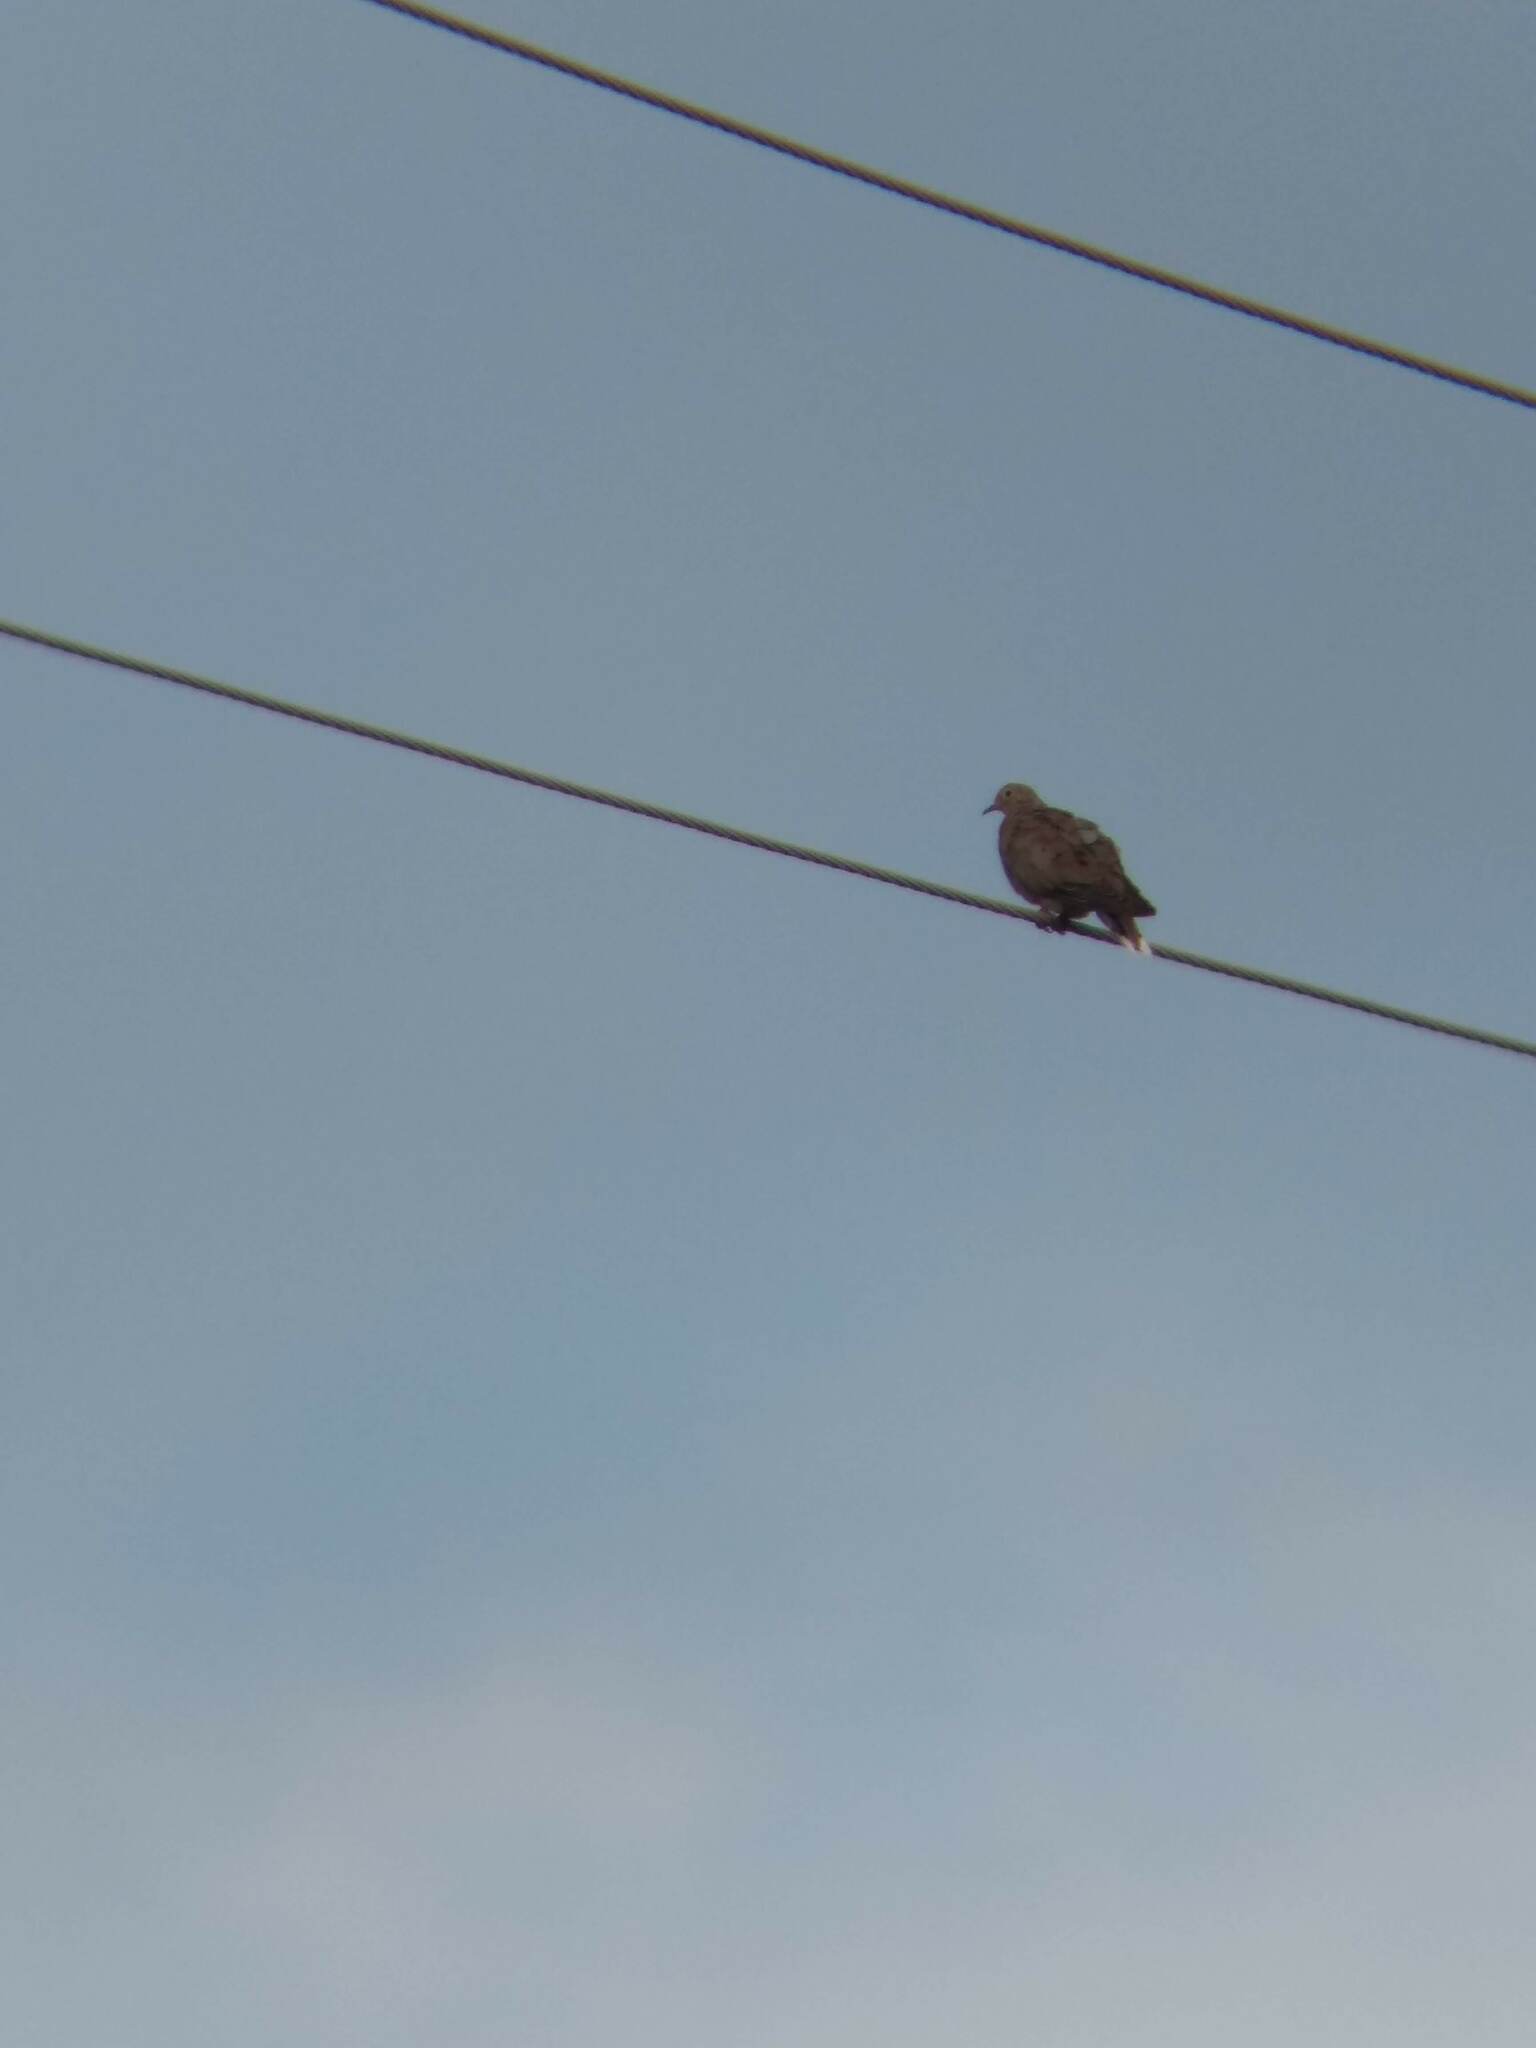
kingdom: Animalia
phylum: Chordata
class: Aves
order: Columbiformes
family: Columbidae
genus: Zenaida
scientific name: Zenaida macroura
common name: Mourning dove
